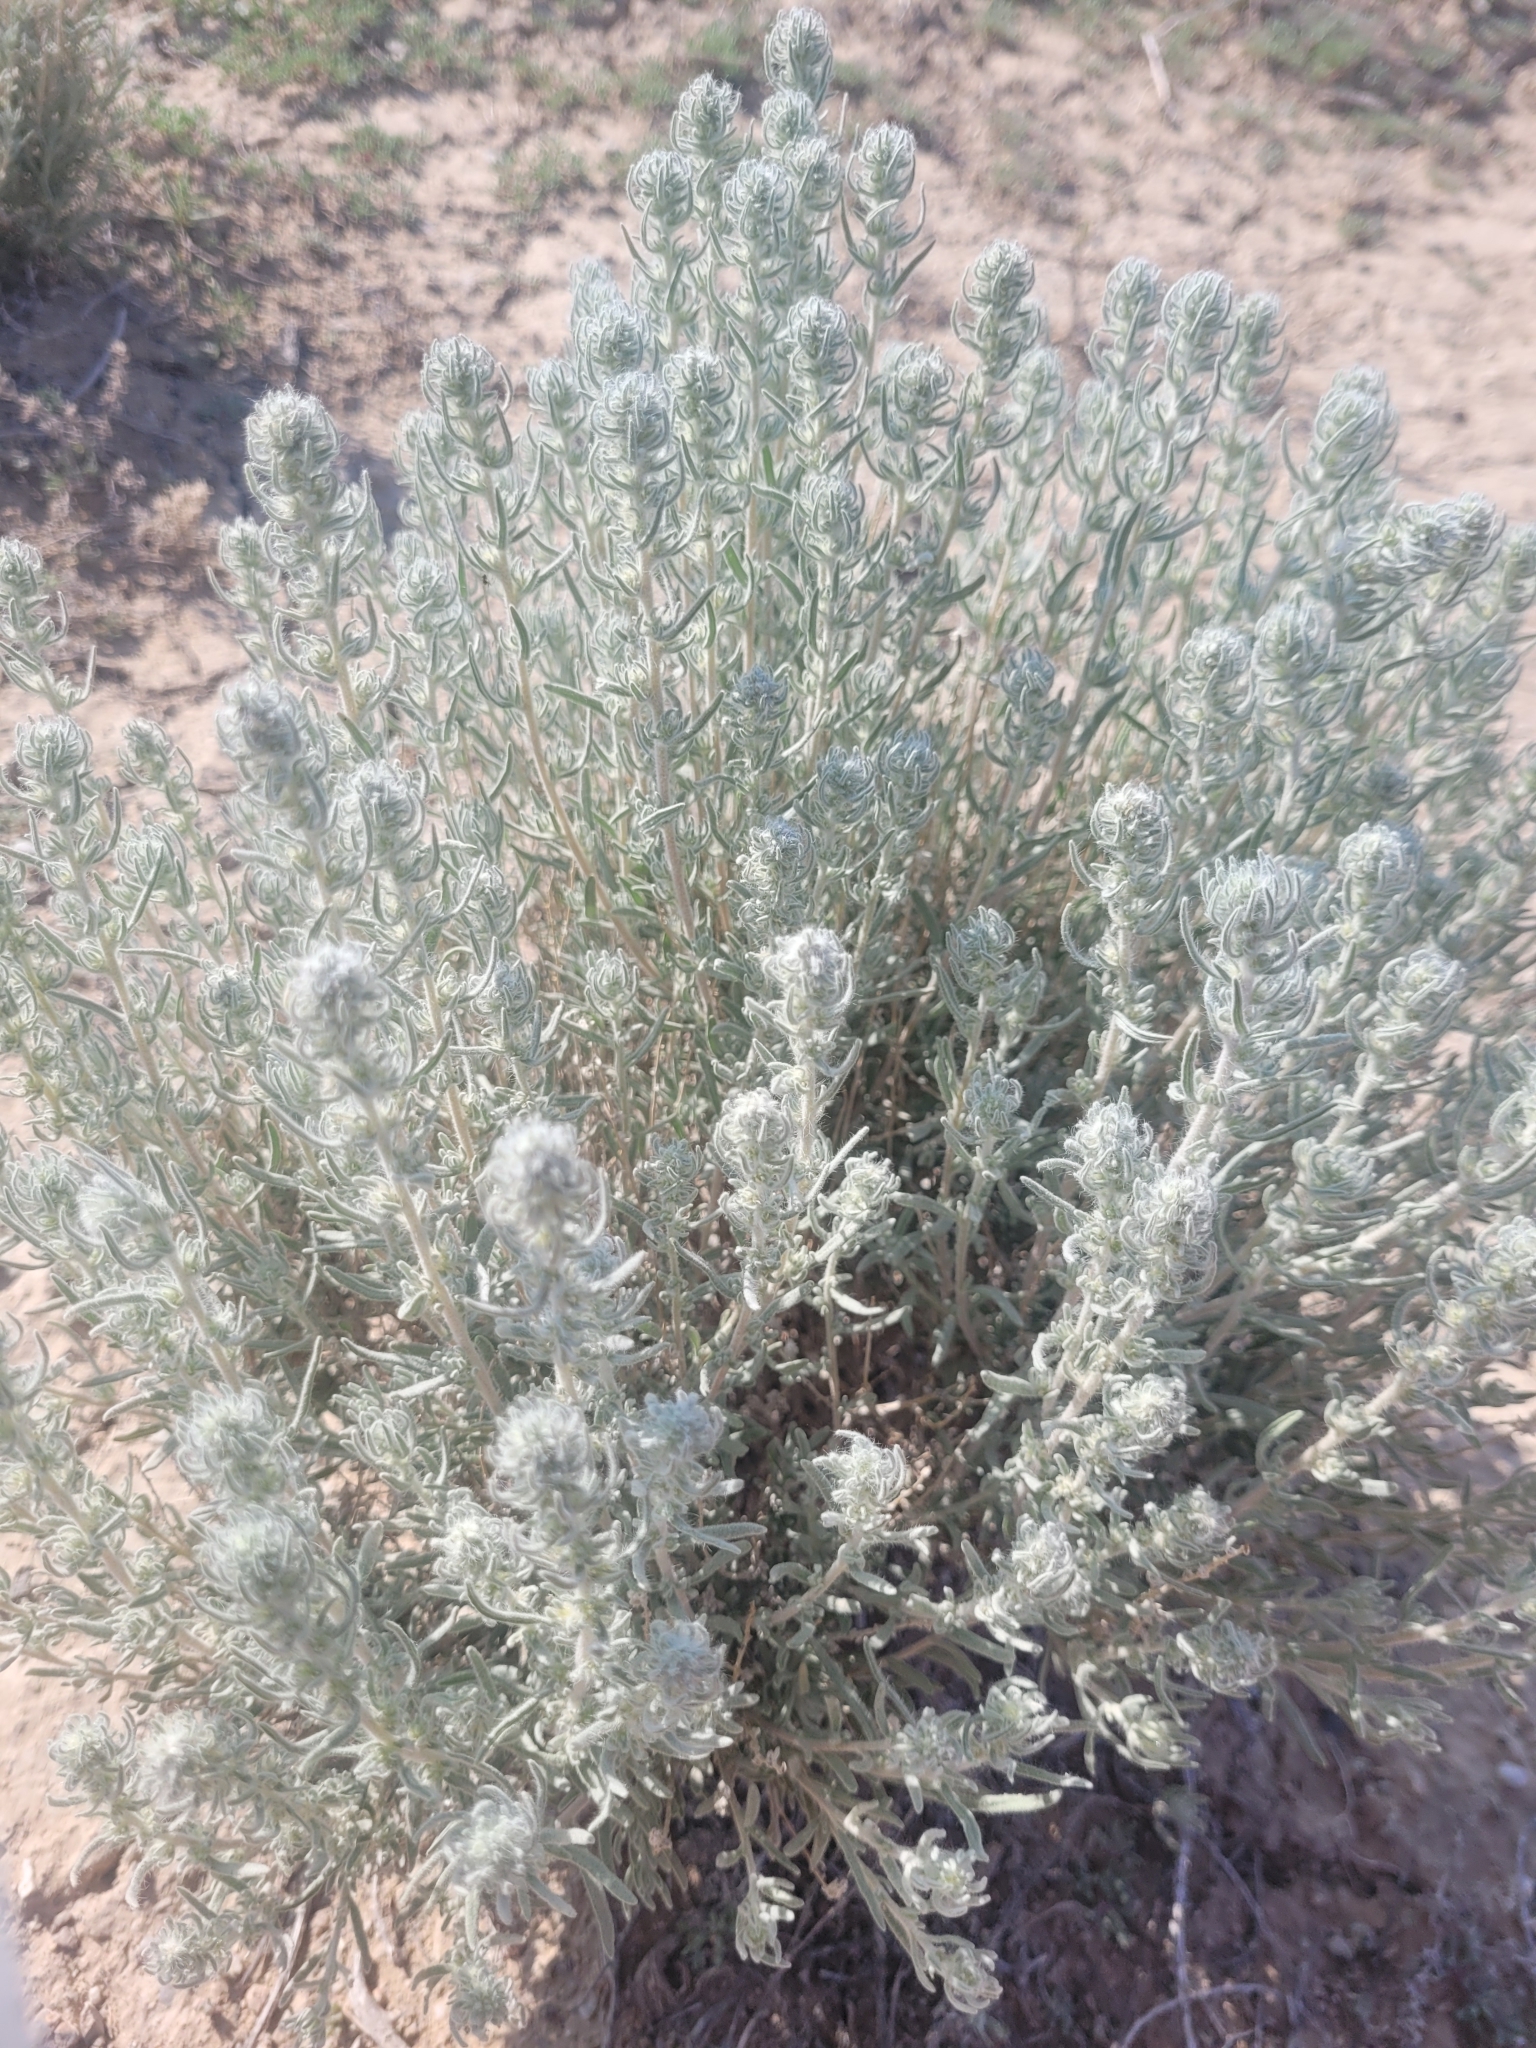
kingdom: Plantae
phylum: Tracheophyta
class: Magnoliopsida
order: Caryophyllales
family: Amaranthaceae
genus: Krascheninnikovia
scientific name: Krascheninnikovia lanata
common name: Winterfat
